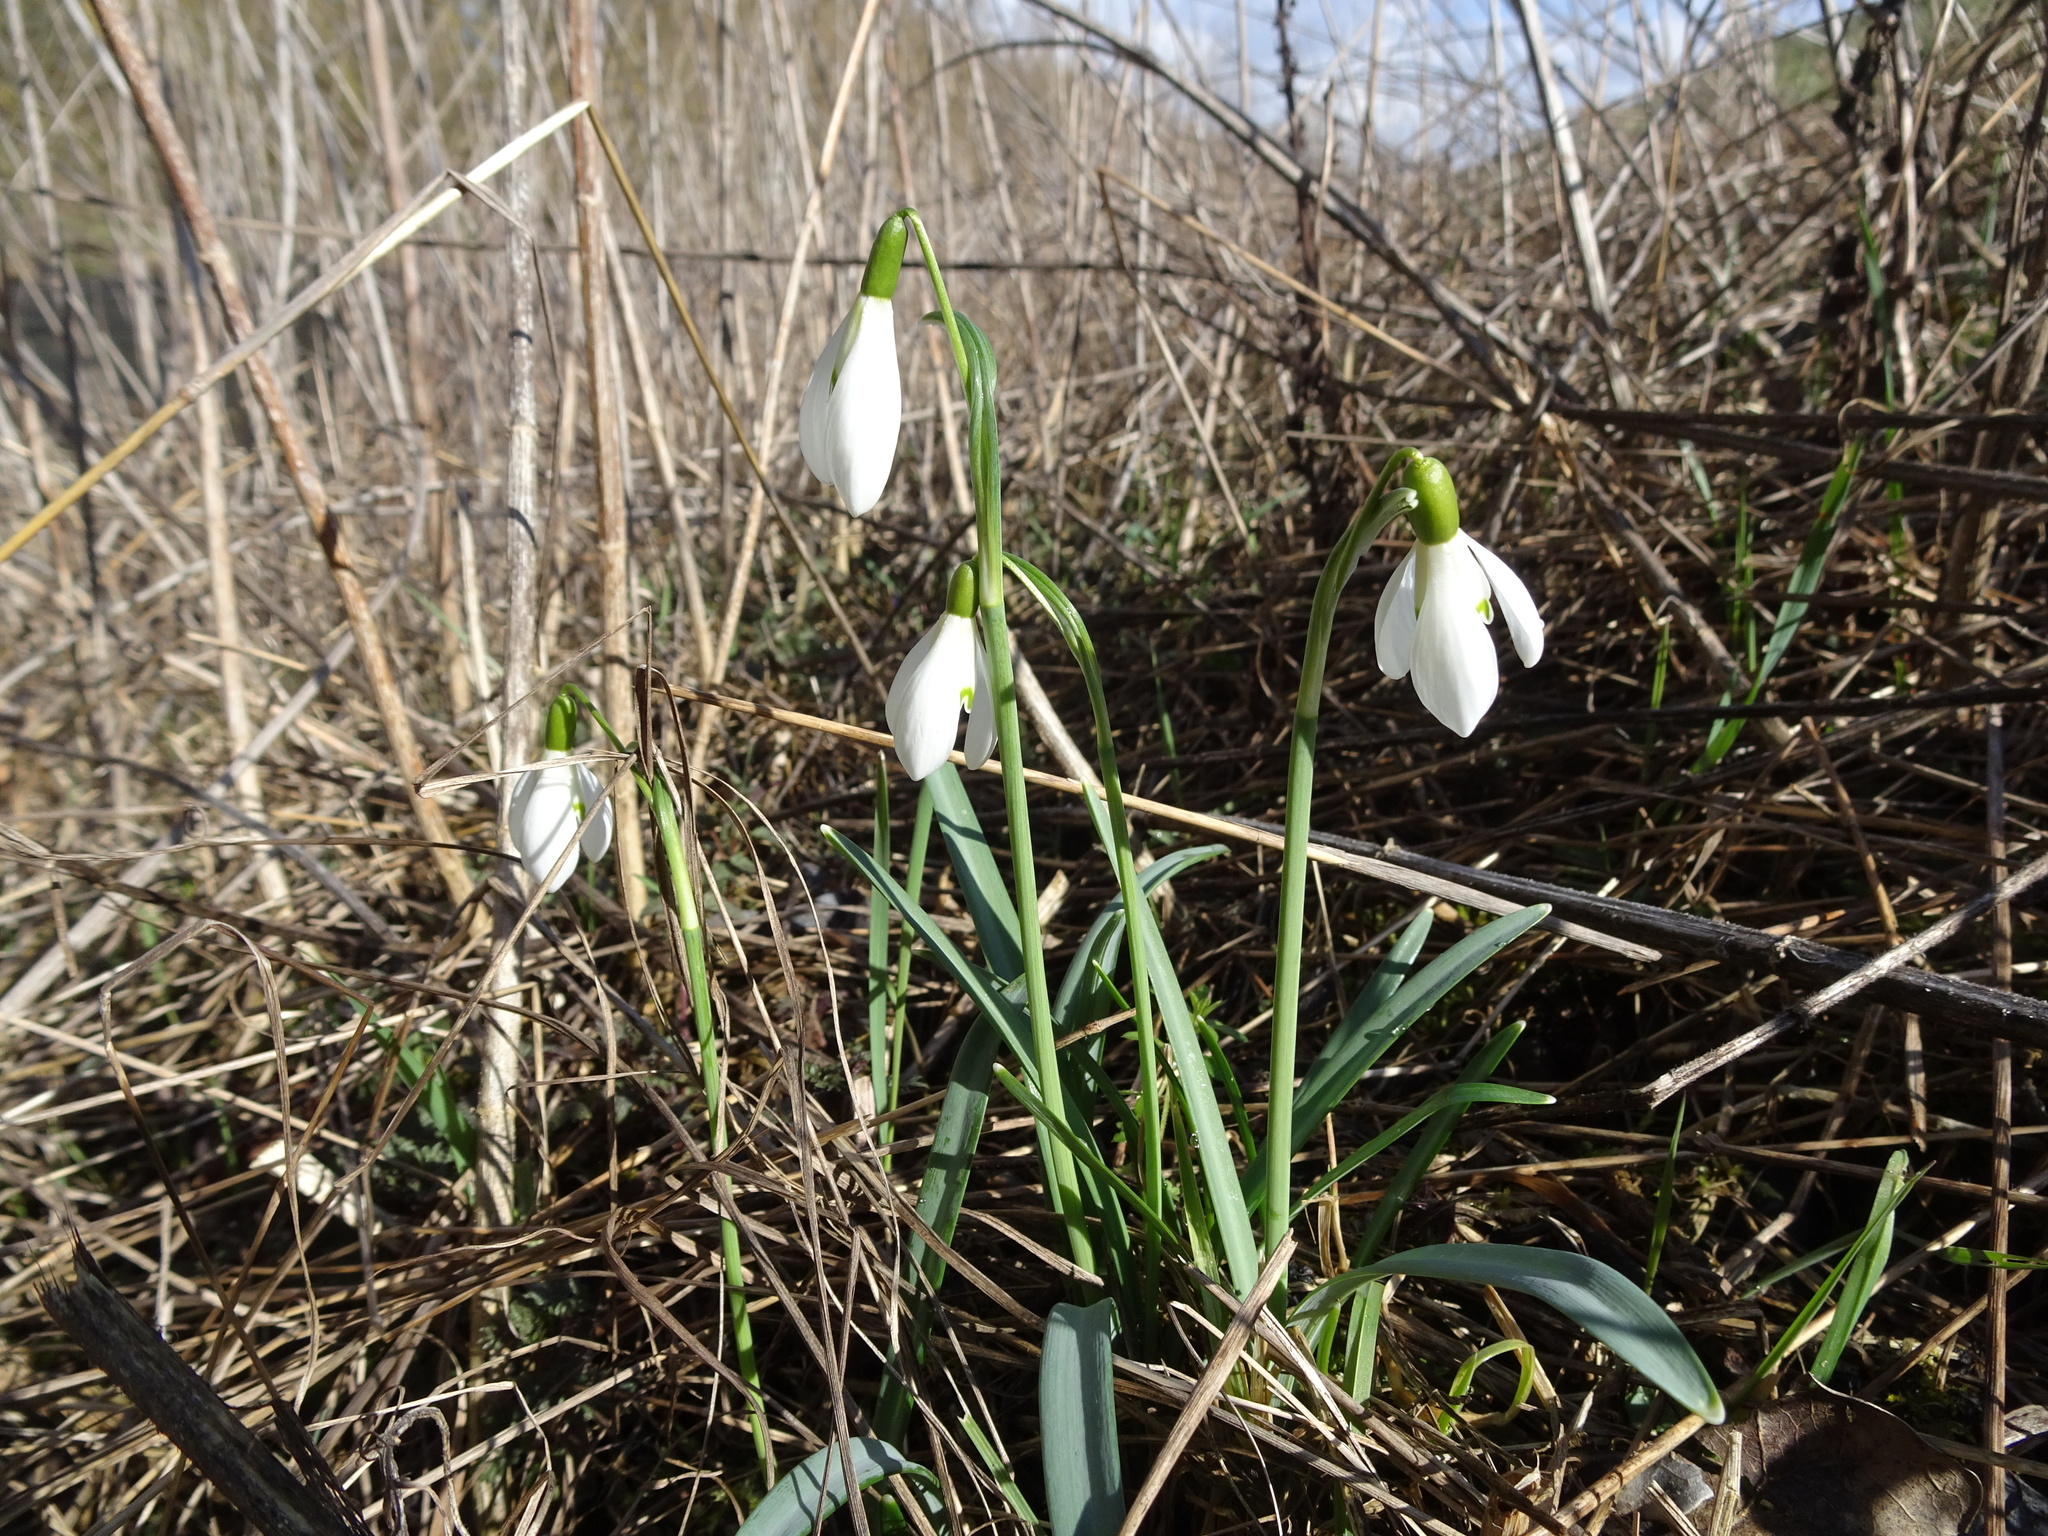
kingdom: Plantae
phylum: Tracheophyta
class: Liliopsida
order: Asparagales
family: Amaryllidaceae
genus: Galanthus
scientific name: Galanthus nivalis
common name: Snowdrop
